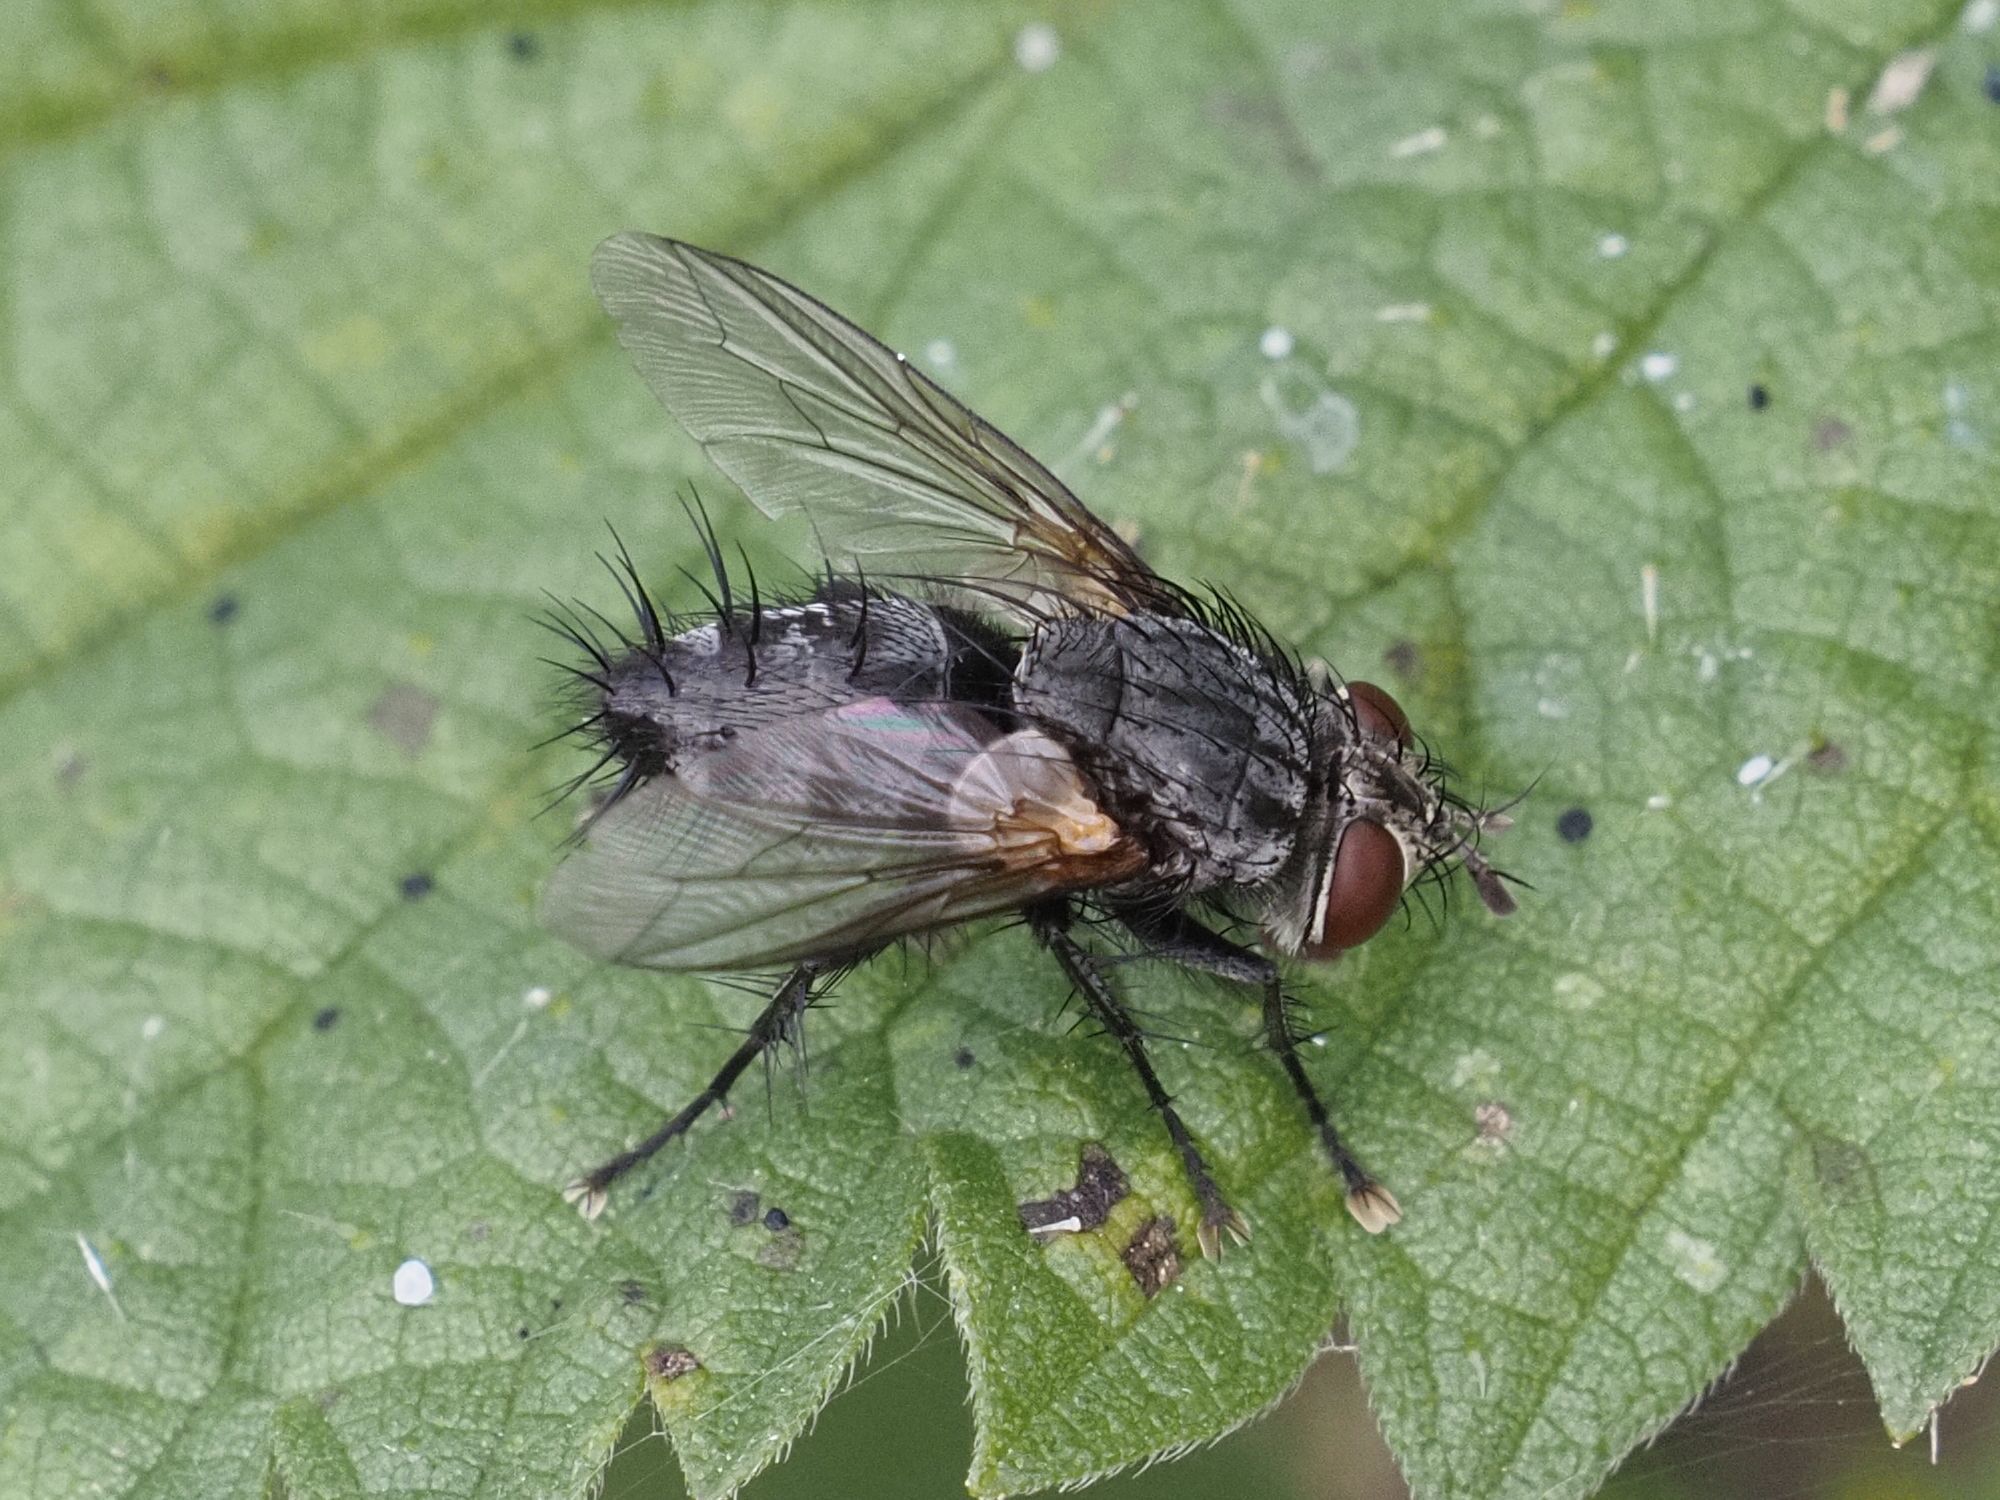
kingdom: Animalia
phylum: Arthropoda
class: Insecta
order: Diptera
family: Tachinidae
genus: Voria
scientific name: Voria ruralis
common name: Parasitic fly
